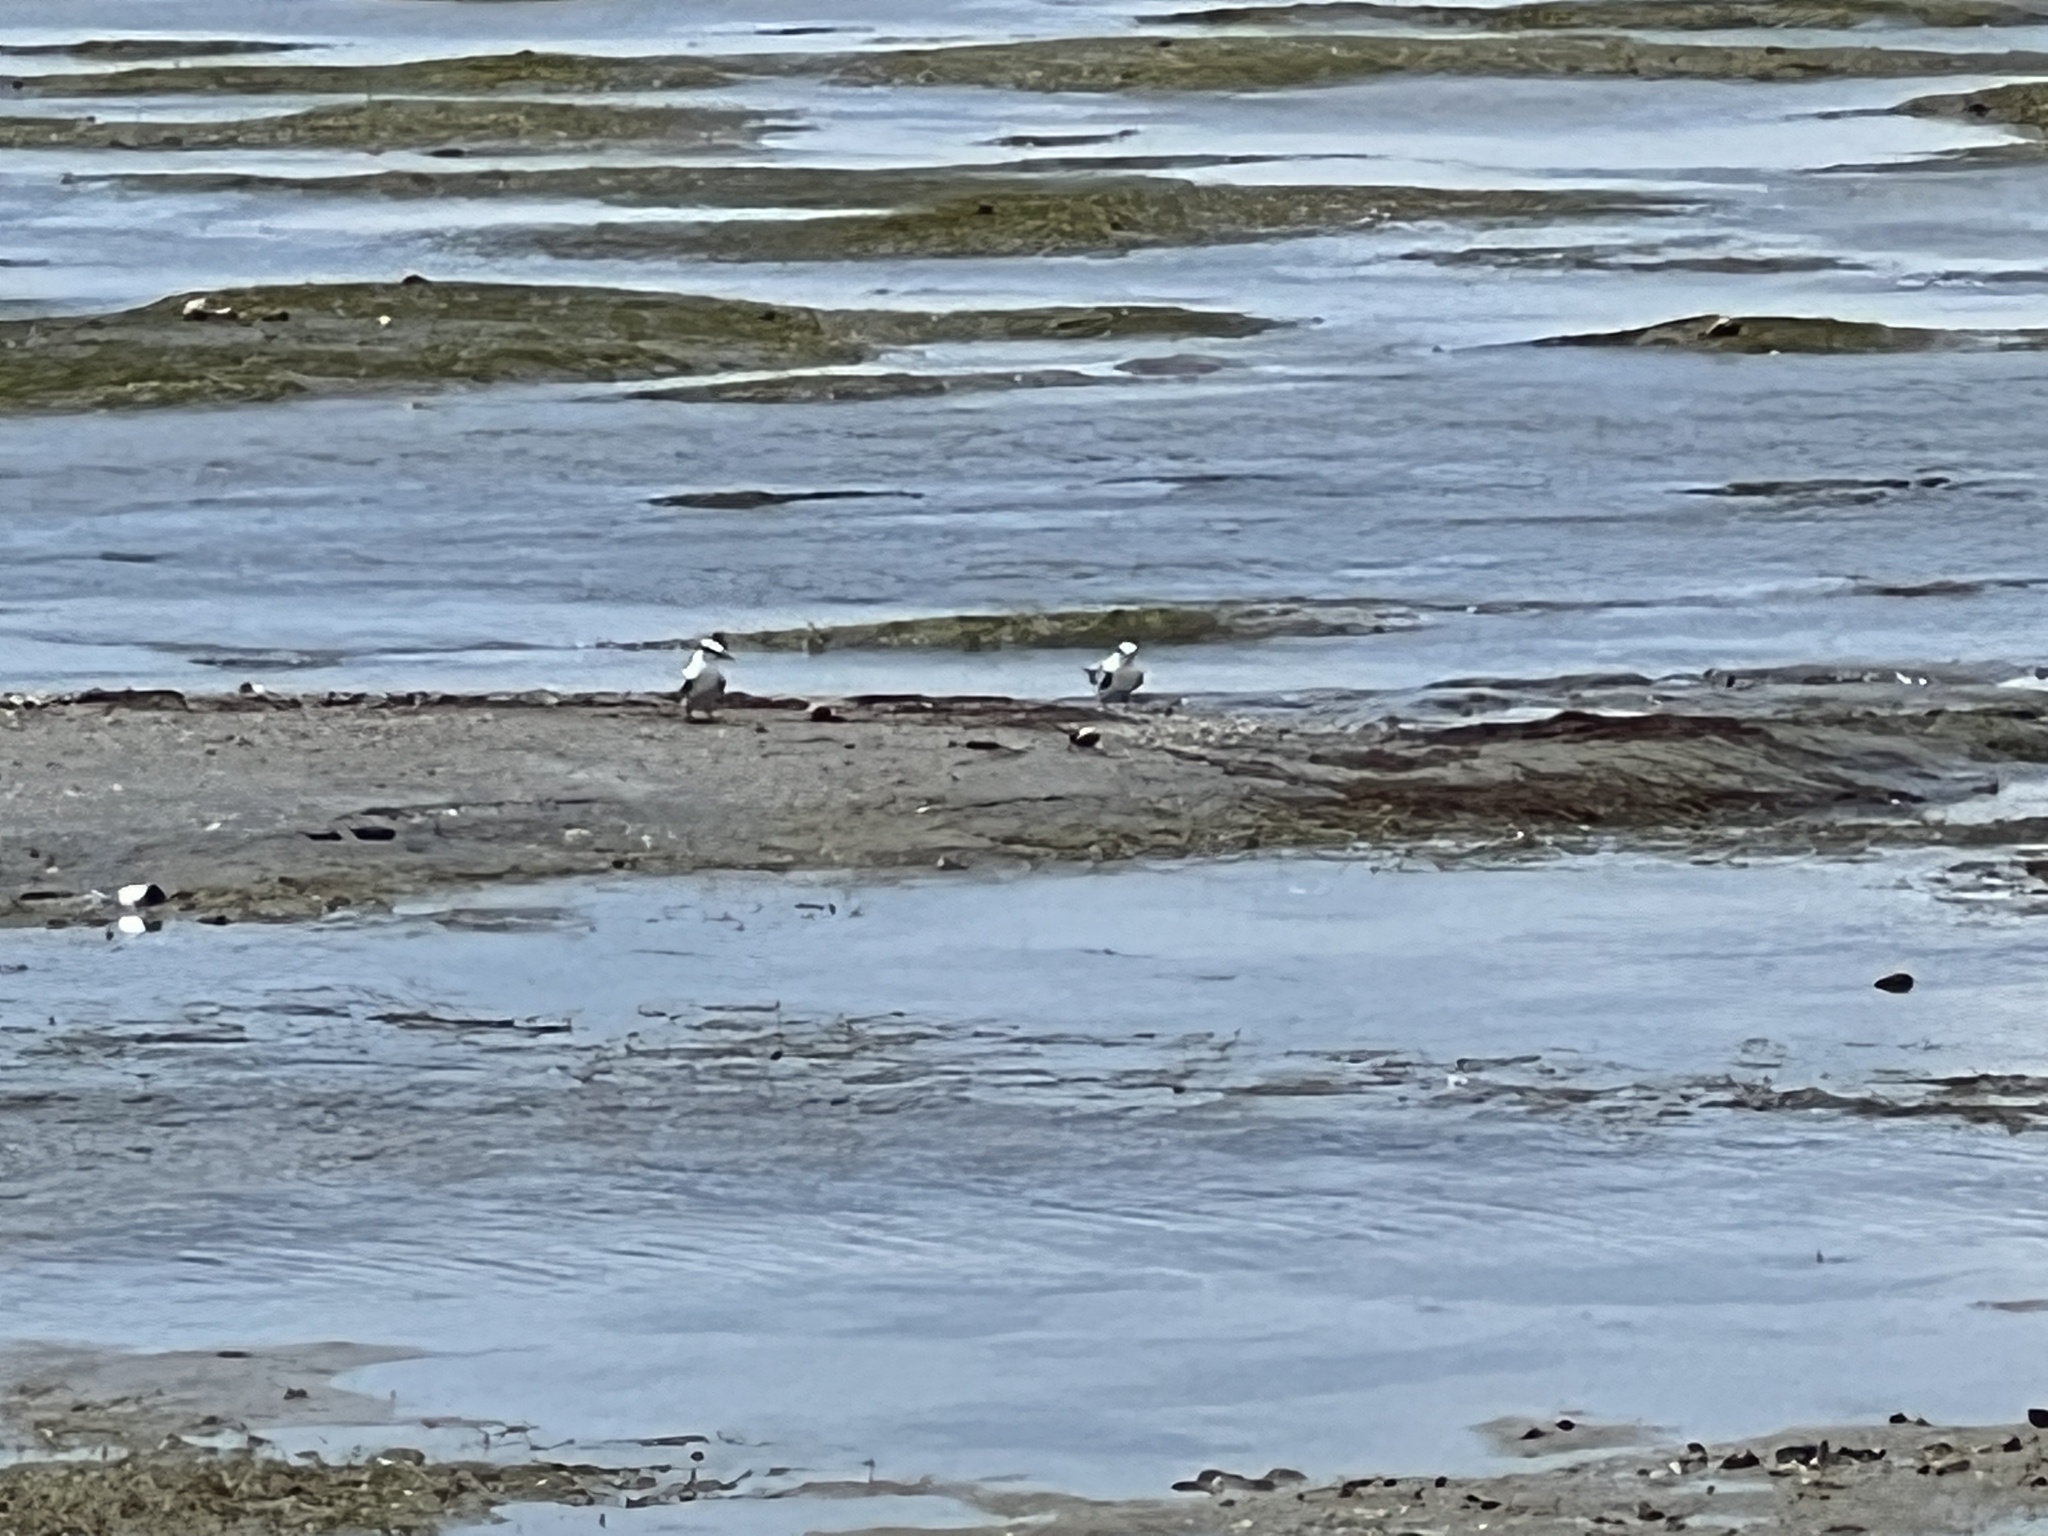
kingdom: Animalia
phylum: Chordata
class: Aves
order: Charadriiformes
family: Laridae
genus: Sternula
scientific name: Sternula antillarum
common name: Least tern
